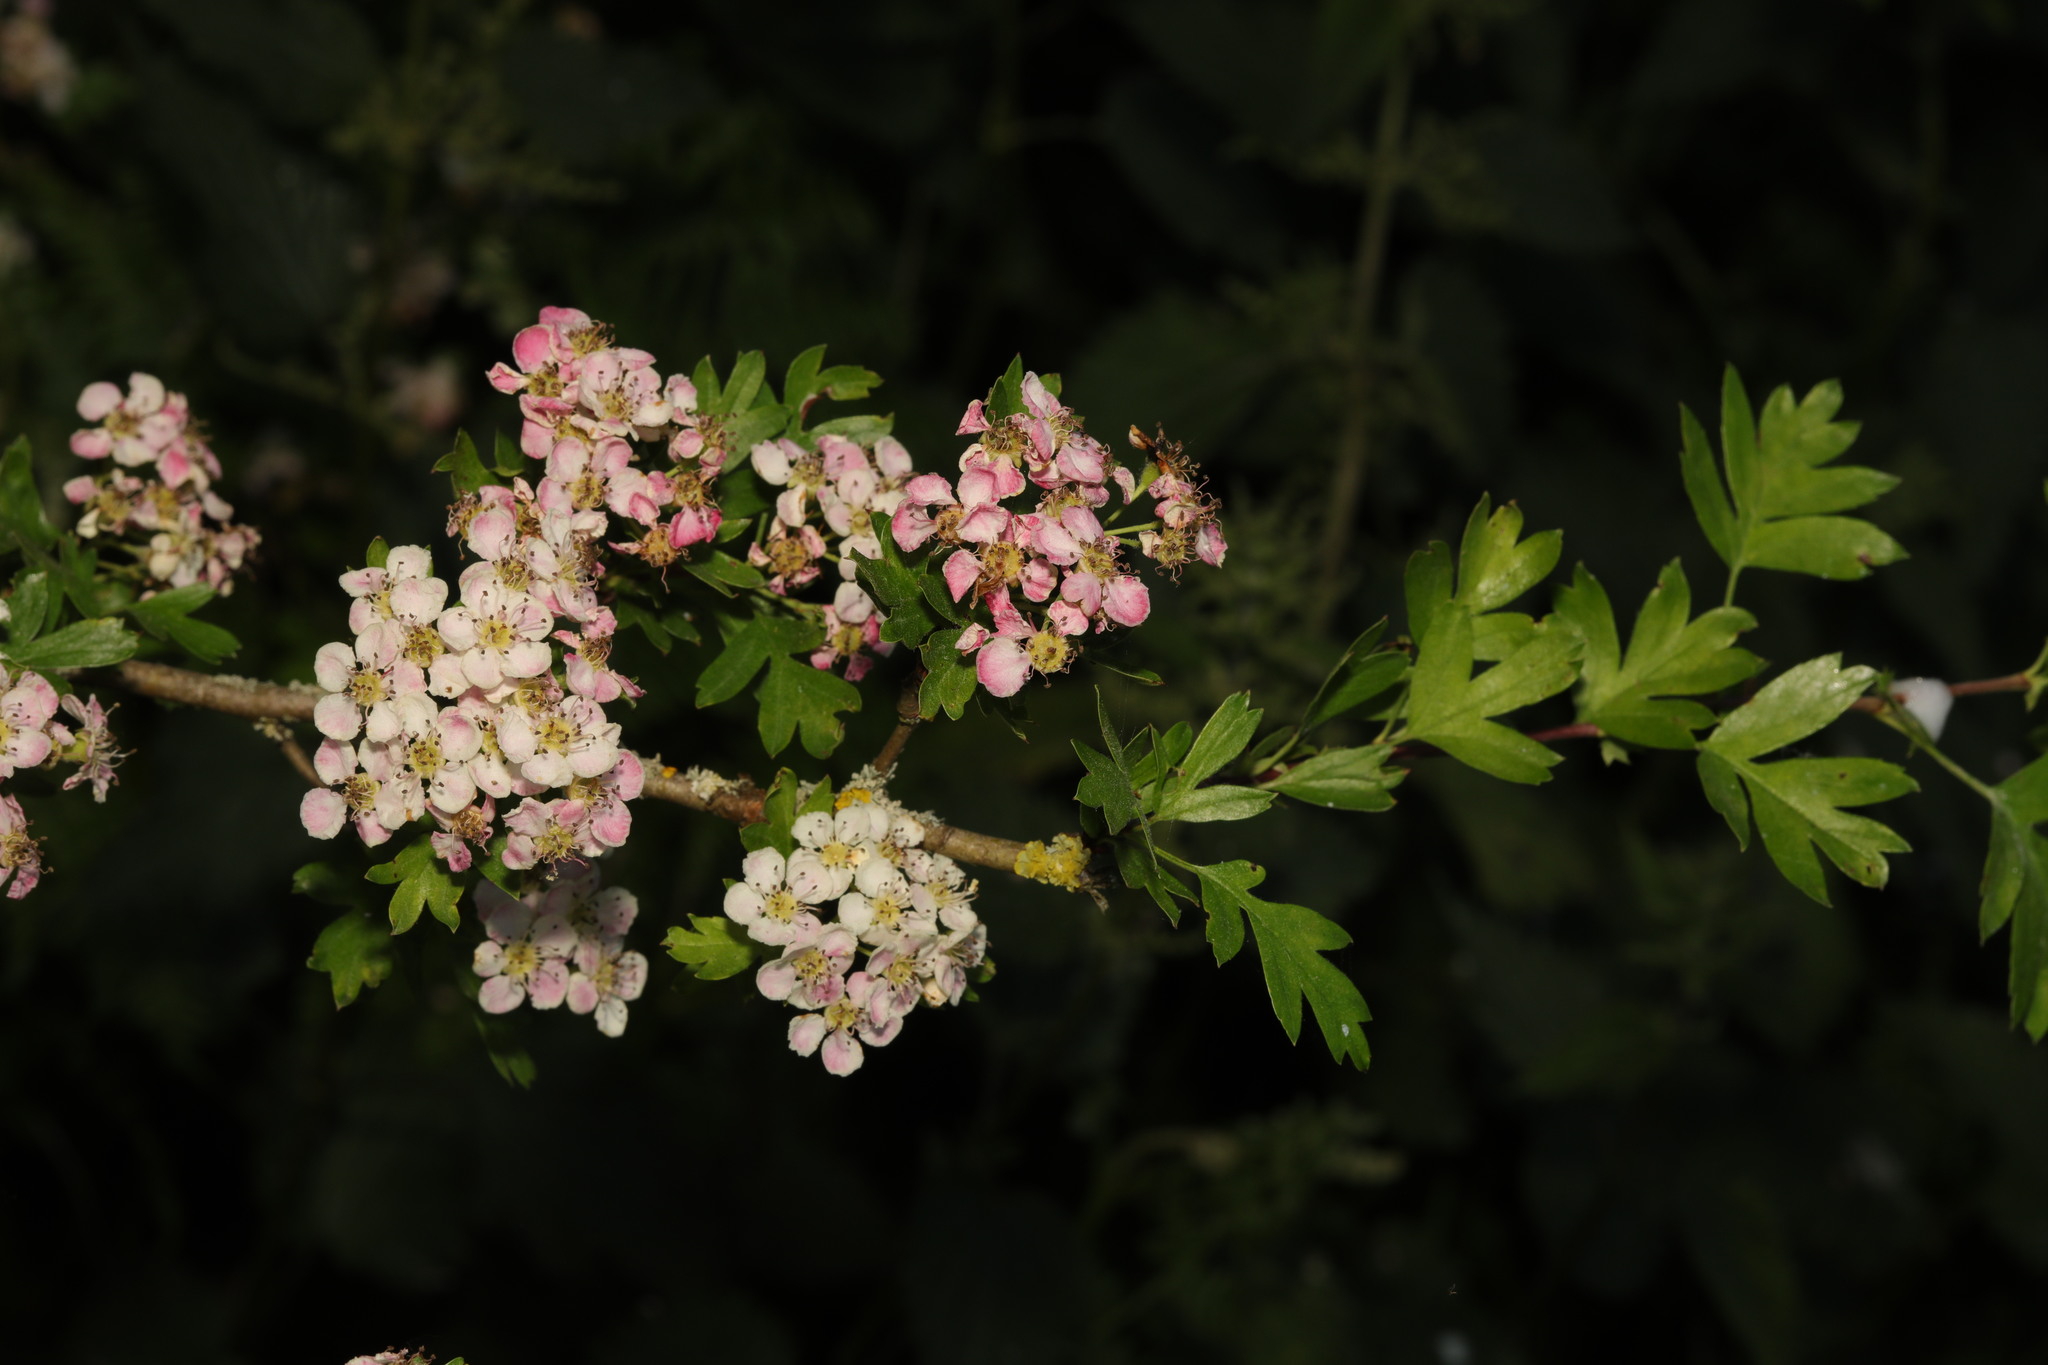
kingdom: Plantae
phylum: Tracheophyta
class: Magnoliopsida
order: Rosales
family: Rosaceae
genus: Crataegus
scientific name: Crataegus monogyna
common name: Hawthorn
